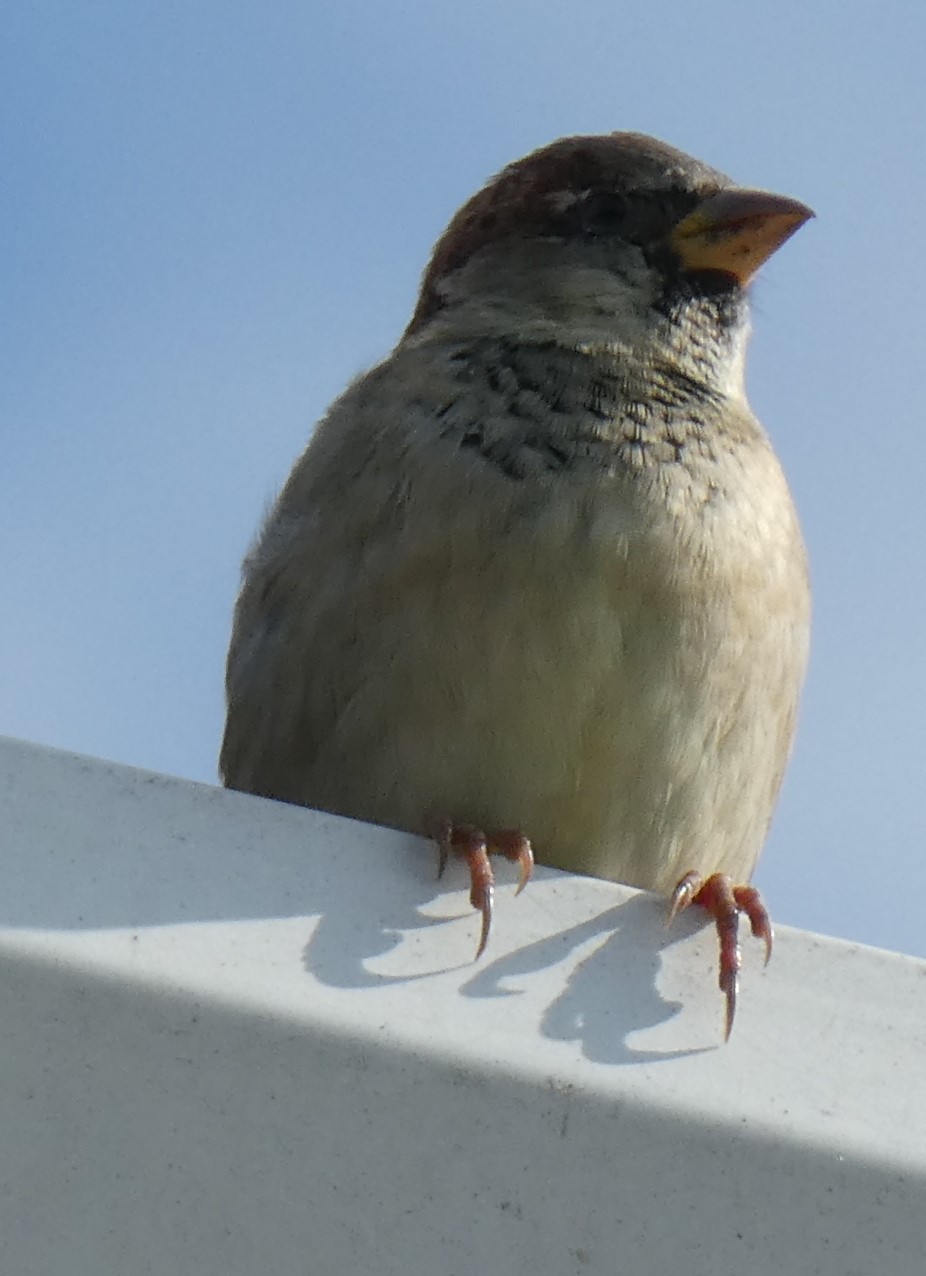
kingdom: Animalia
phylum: Chordata
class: Aves
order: Passeriformes
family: Passeridae
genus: Passer
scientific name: Passer domesticus
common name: House sparrow
